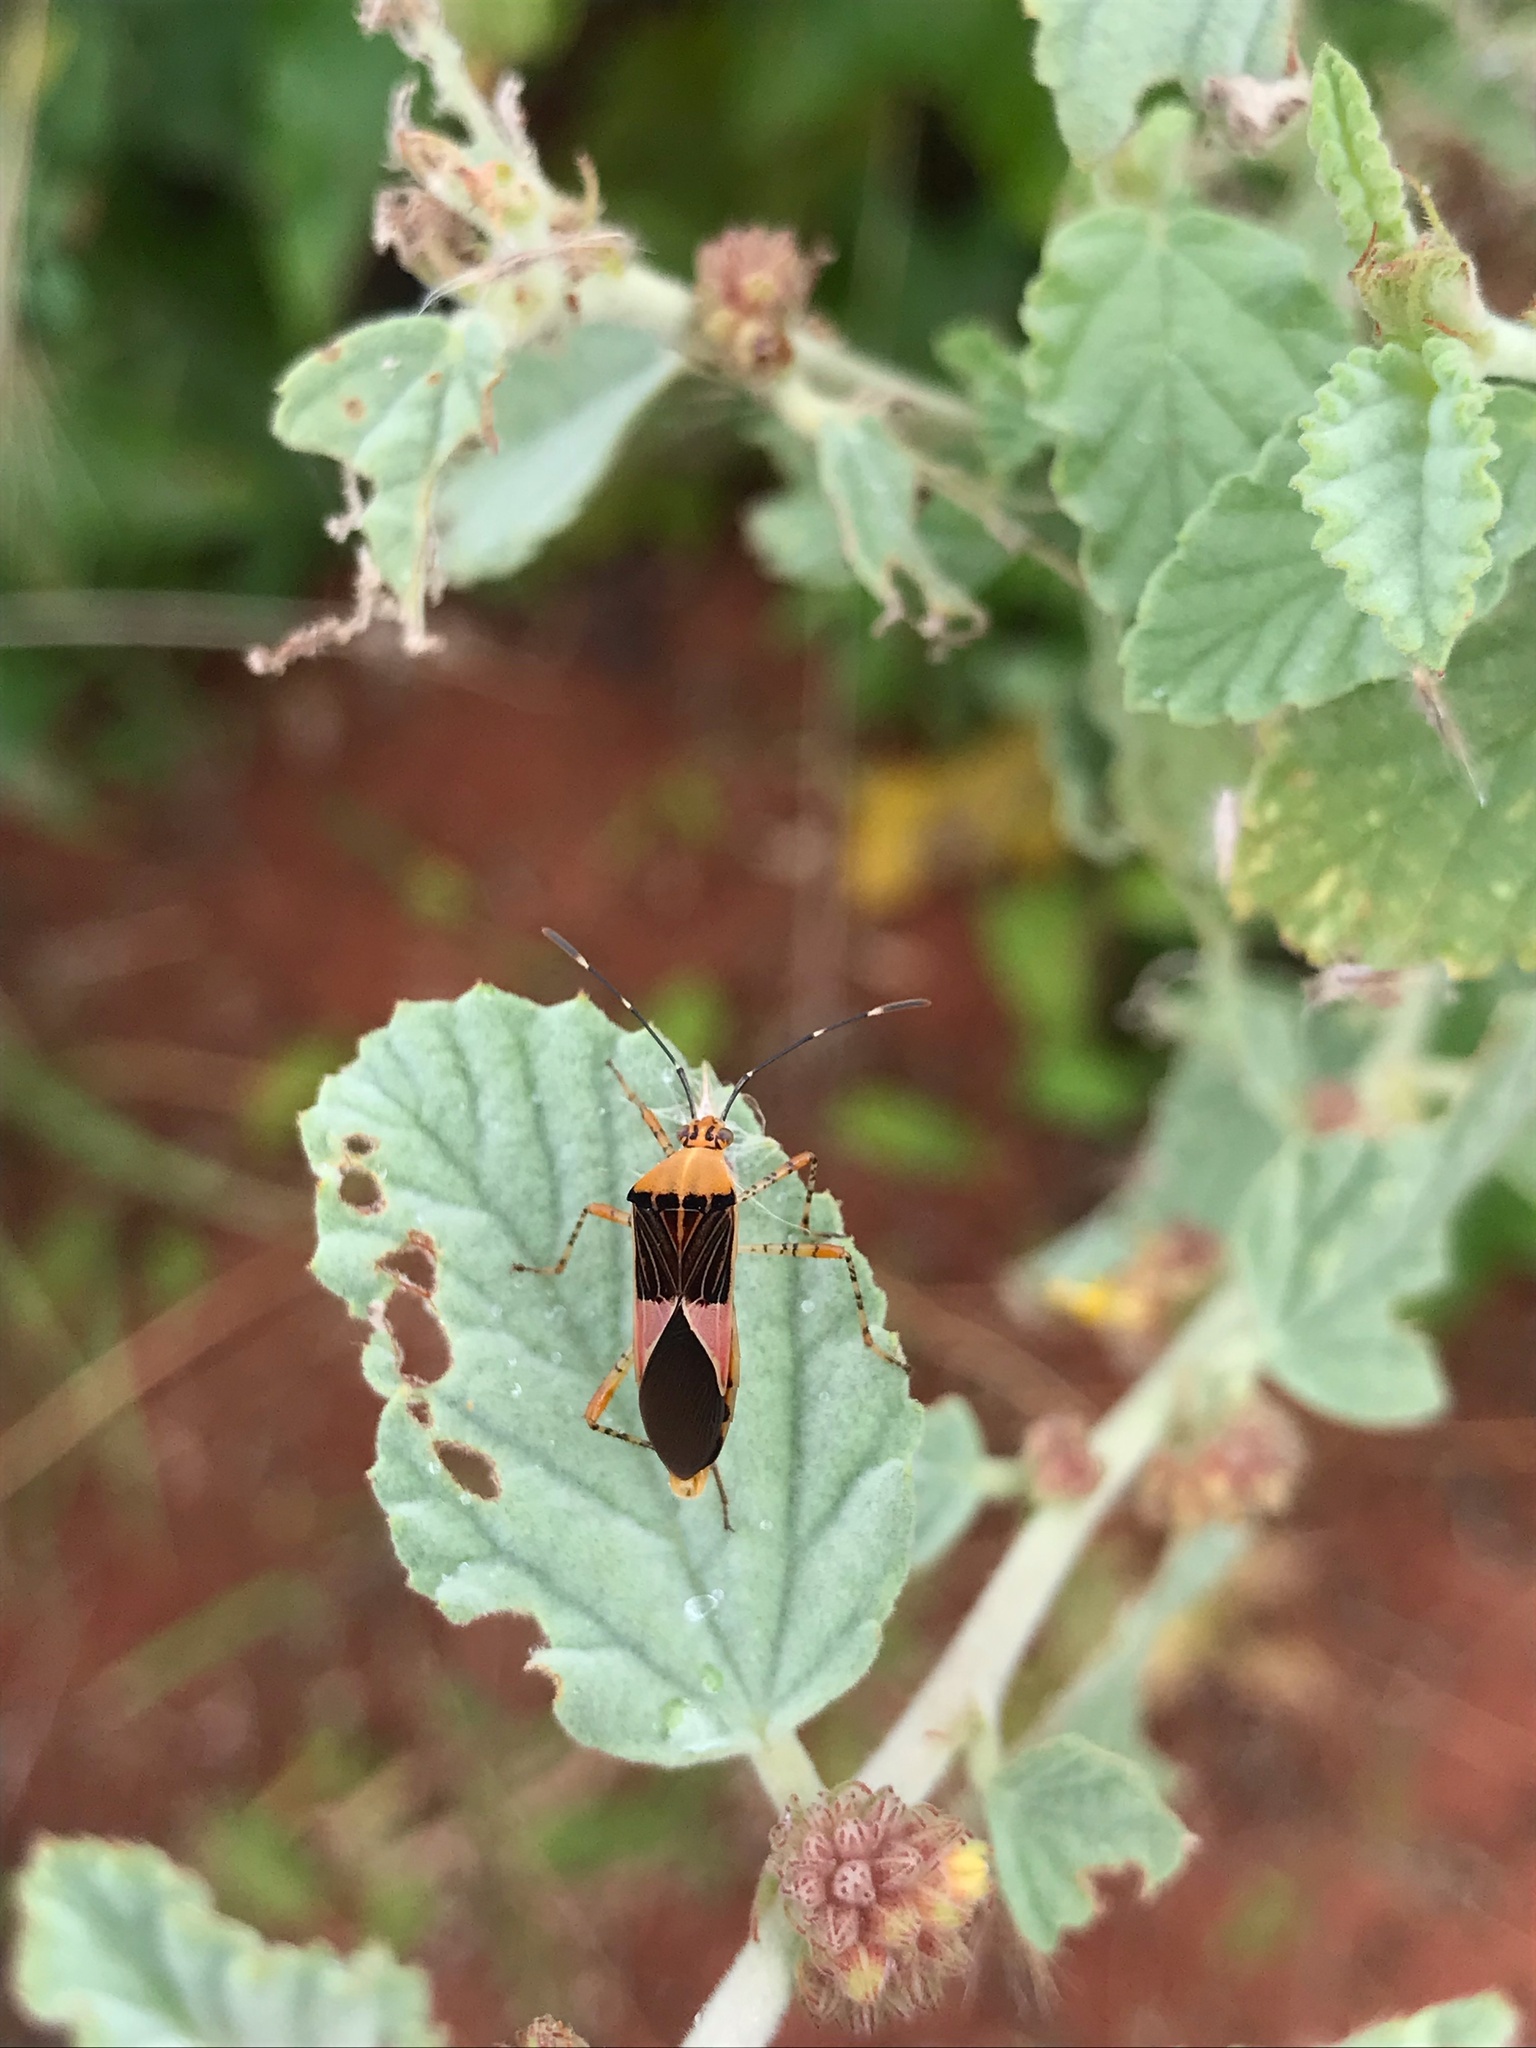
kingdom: Animalia
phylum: Arthropoda
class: Insecta
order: Hemiptera
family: Coreidae
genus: Hypselonotus
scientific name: Hypselonotus fulvus
